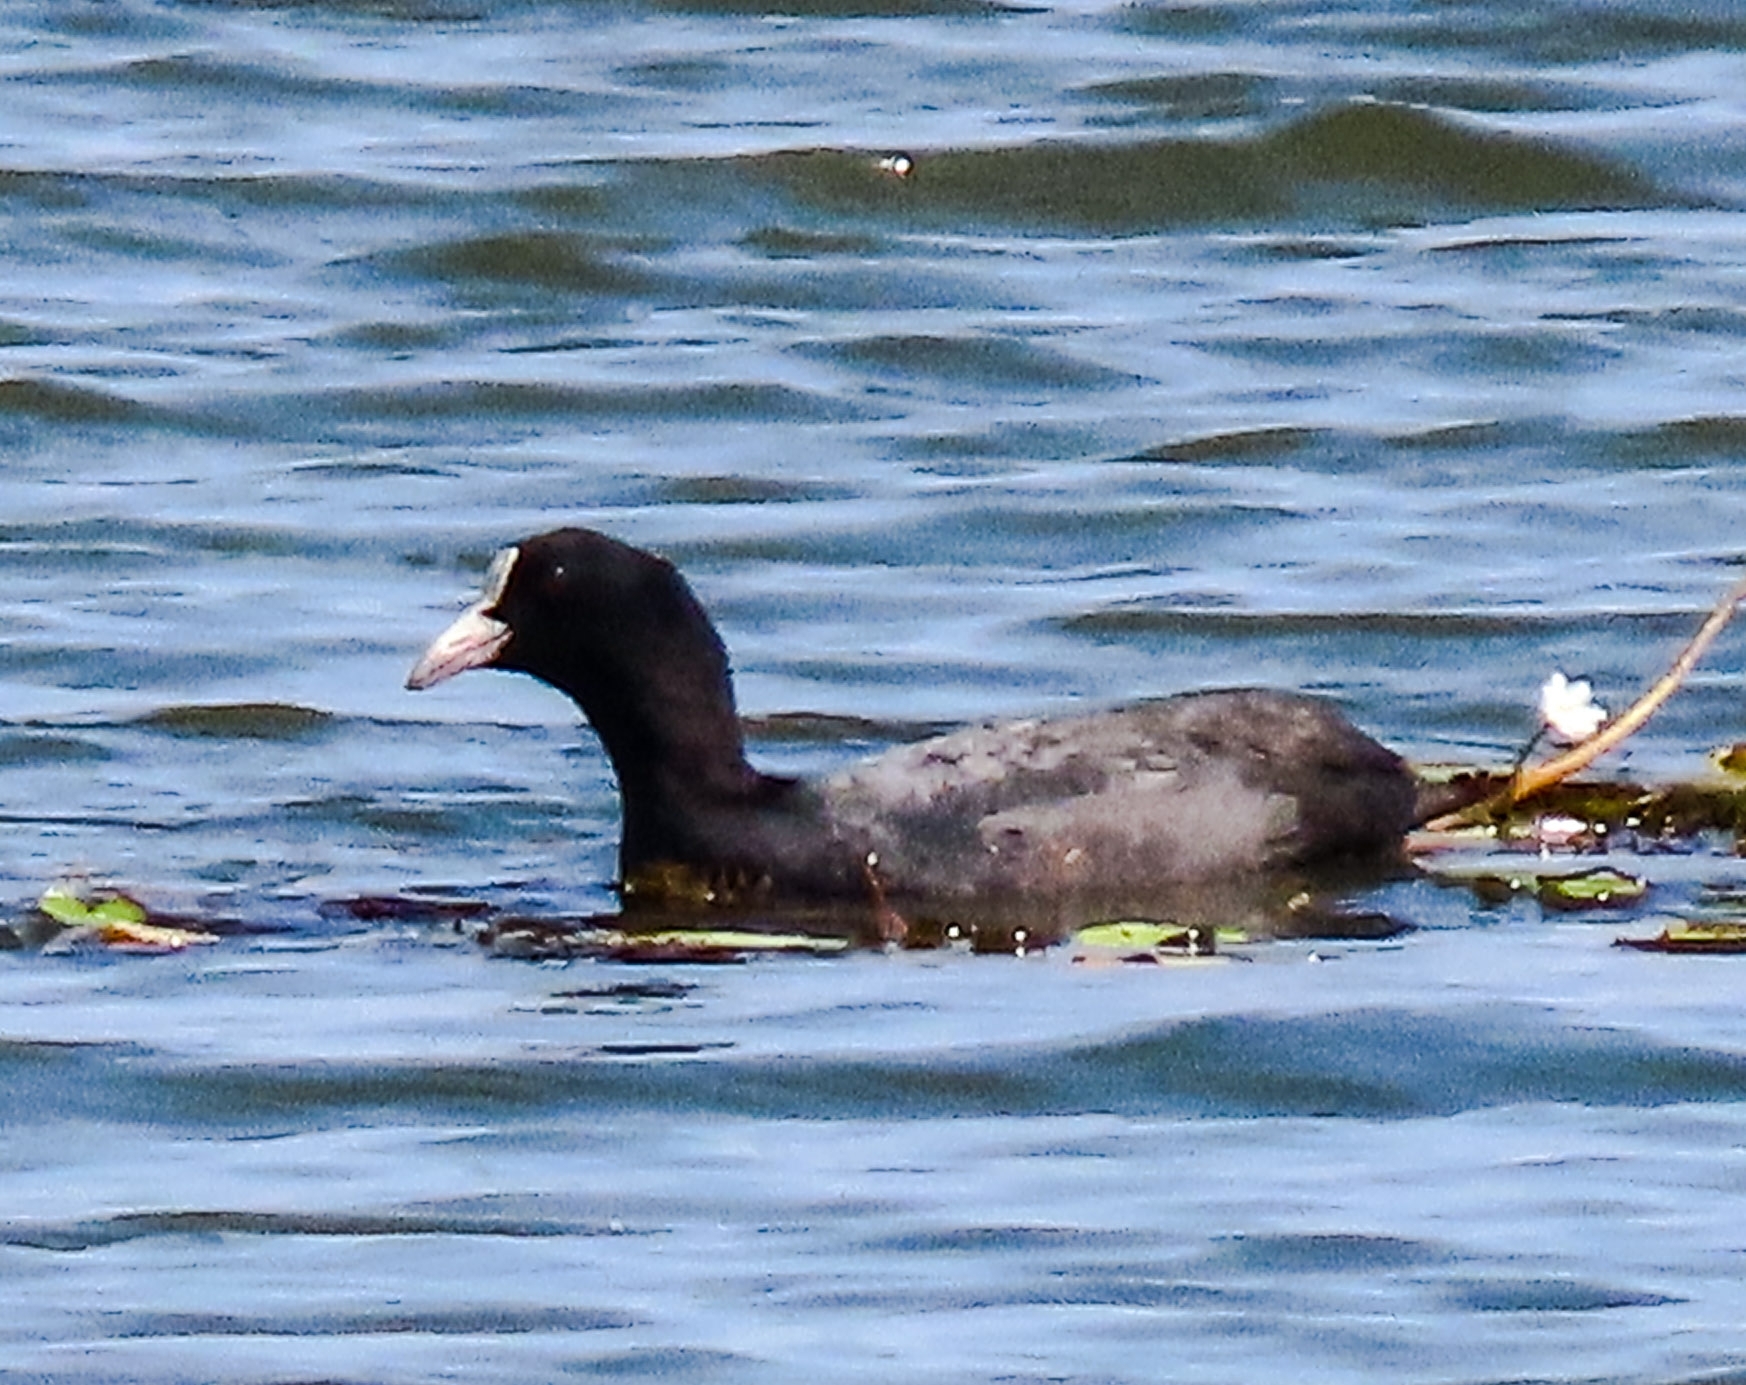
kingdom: Animalia
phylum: Chordata
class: Aves
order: Gruiformes
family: Rallidae
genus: Fulica
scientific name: Fulica atra
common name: Eurasian coot
